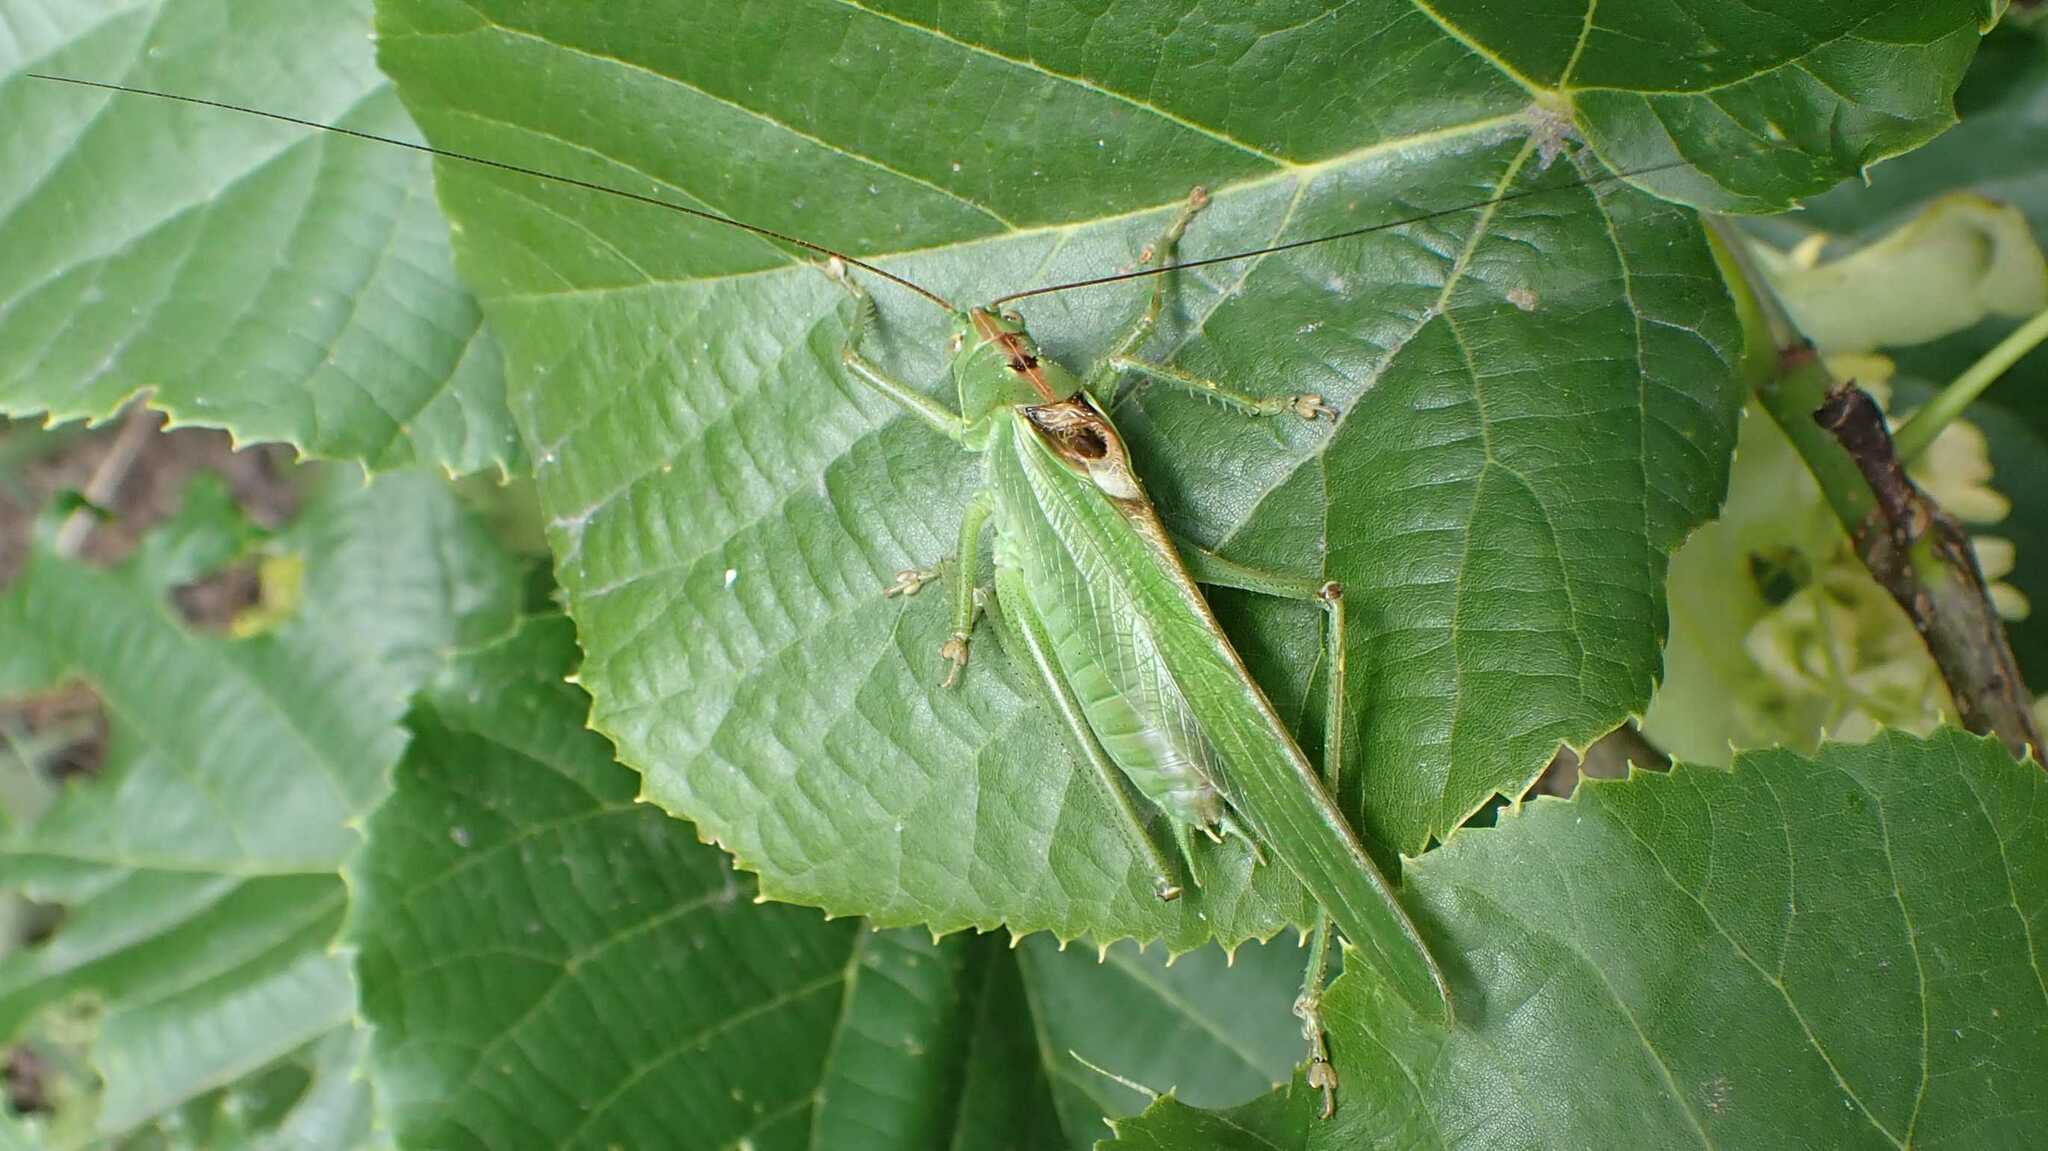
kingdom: Animalia
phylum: Arthropoda
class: Insecta
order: Orthoptera
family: Tettigoniidae
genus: Tettigonia
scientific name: Tettigonia viridissima
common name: Great green bush-cricket
